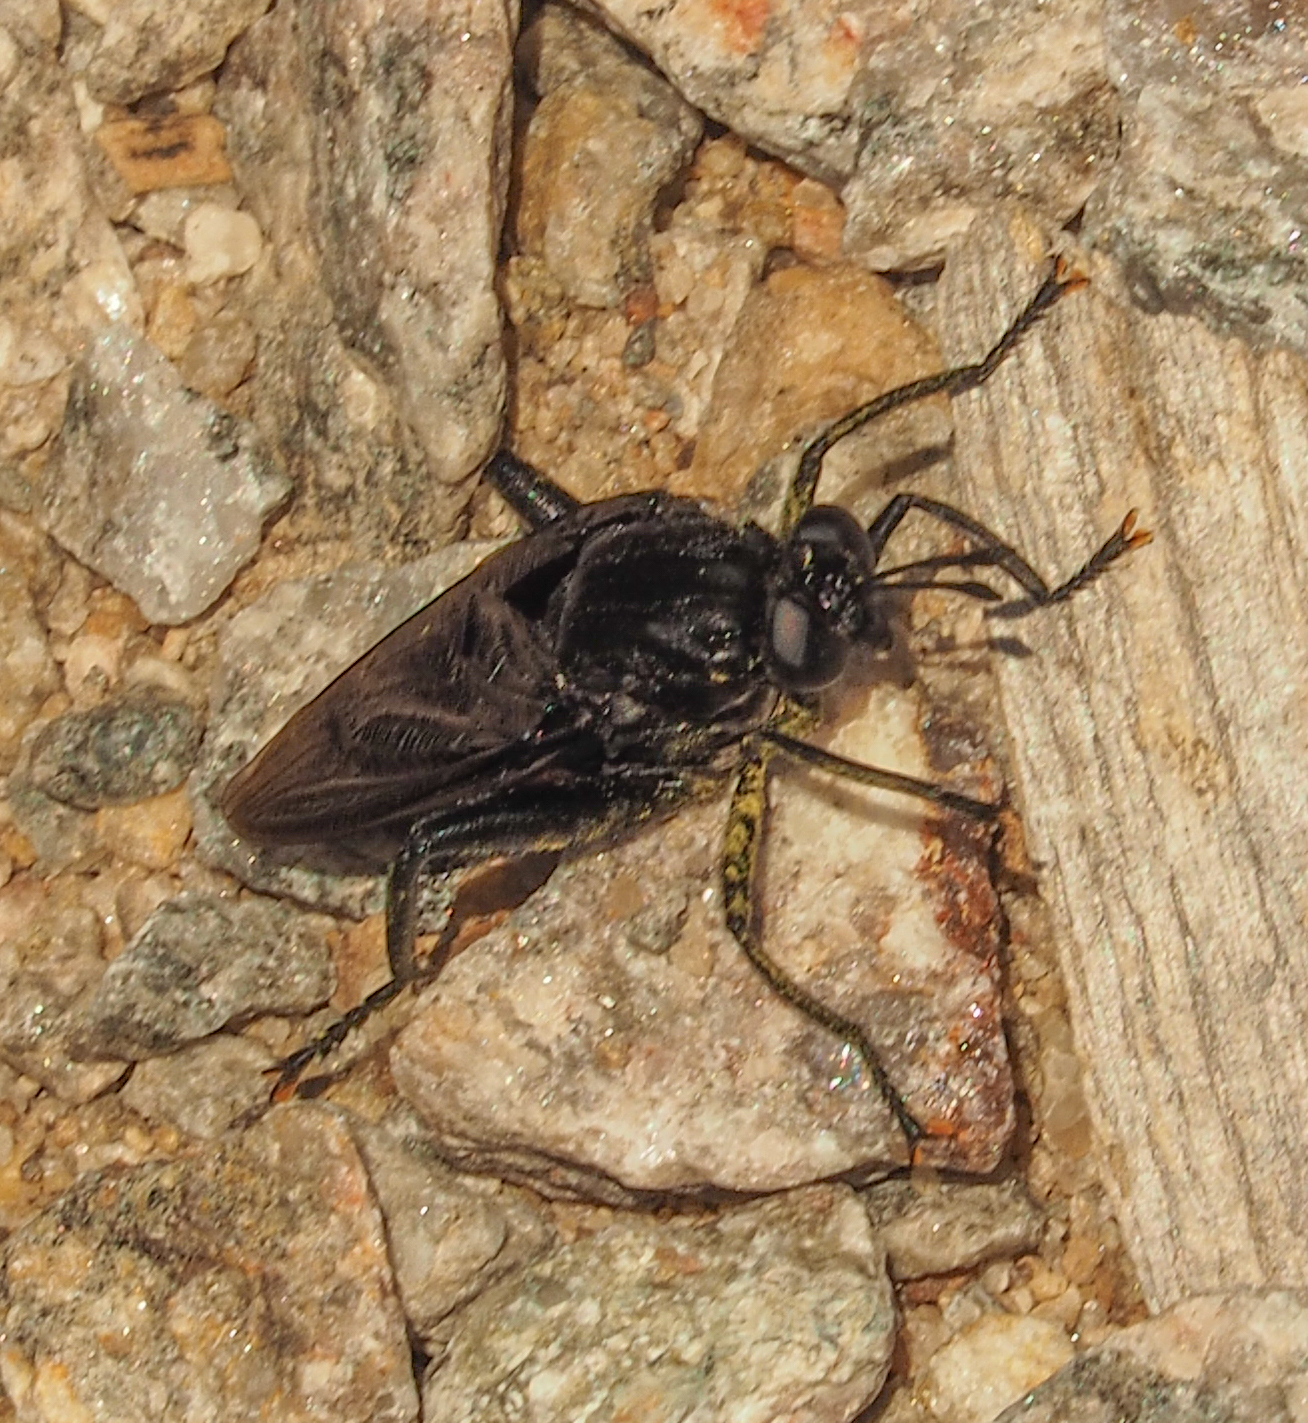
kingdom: Animalia
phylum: Arthropoda
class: Insecta
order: Diptera
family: Mydidae
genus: Mydas
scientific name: Mydas clavatus
